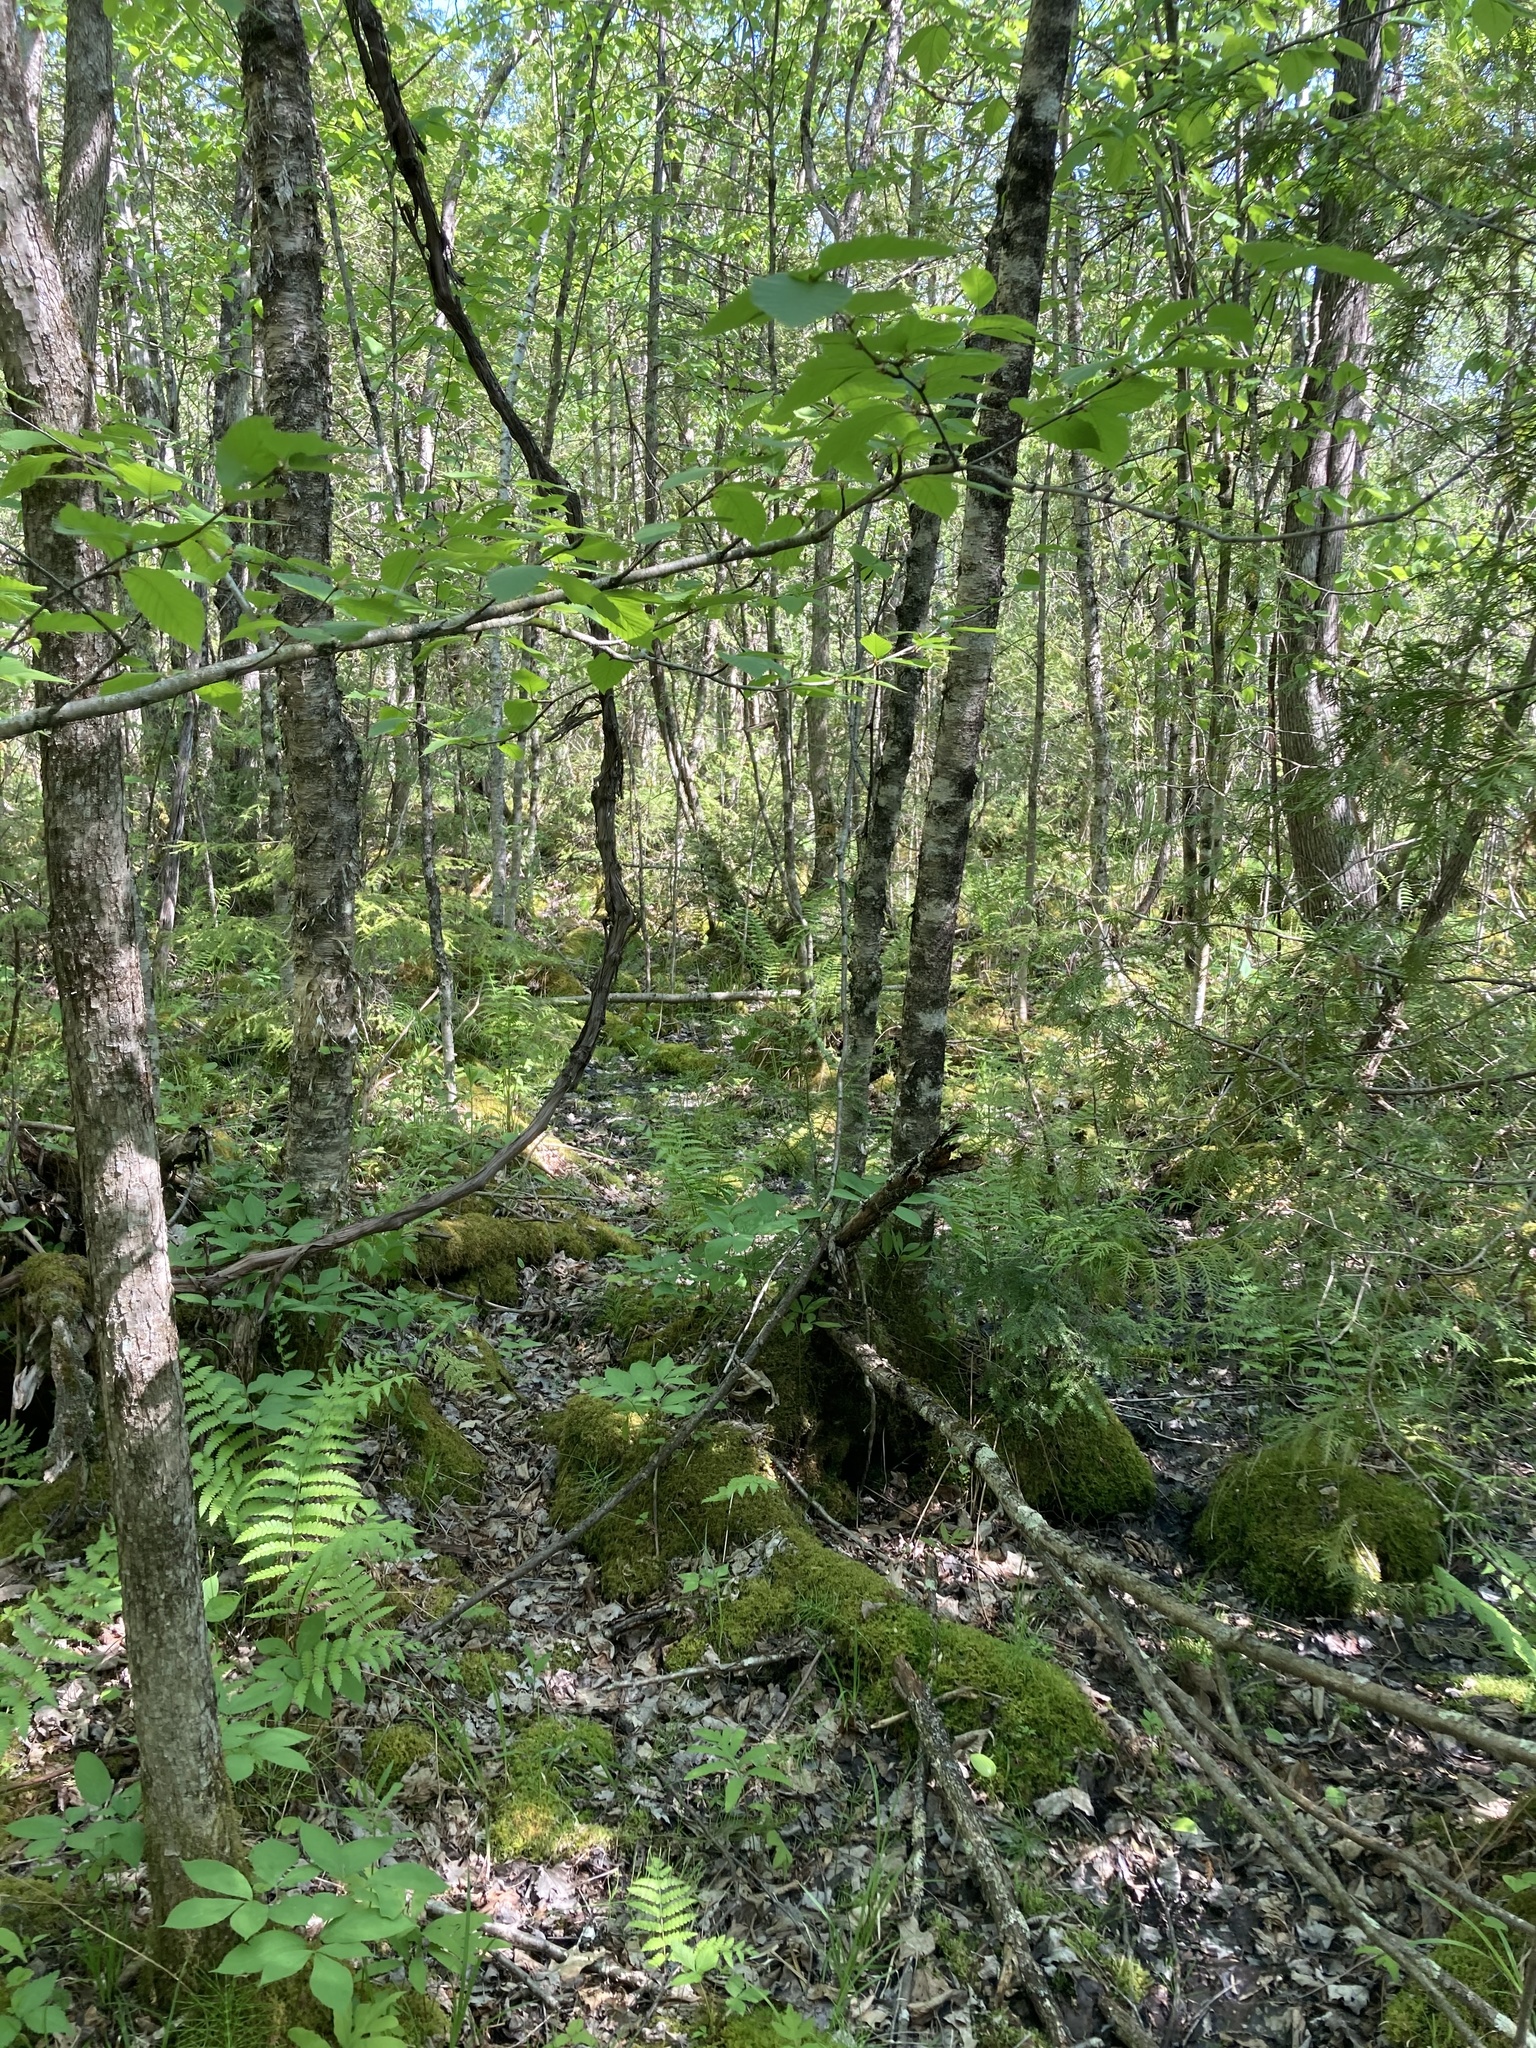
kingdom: Plantae
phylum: Tracheophyta
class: Magnoliopsida
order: Fagales
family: Betulaceae
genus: Betula
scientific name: Betula alleghaniensis
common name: Yellow birch
